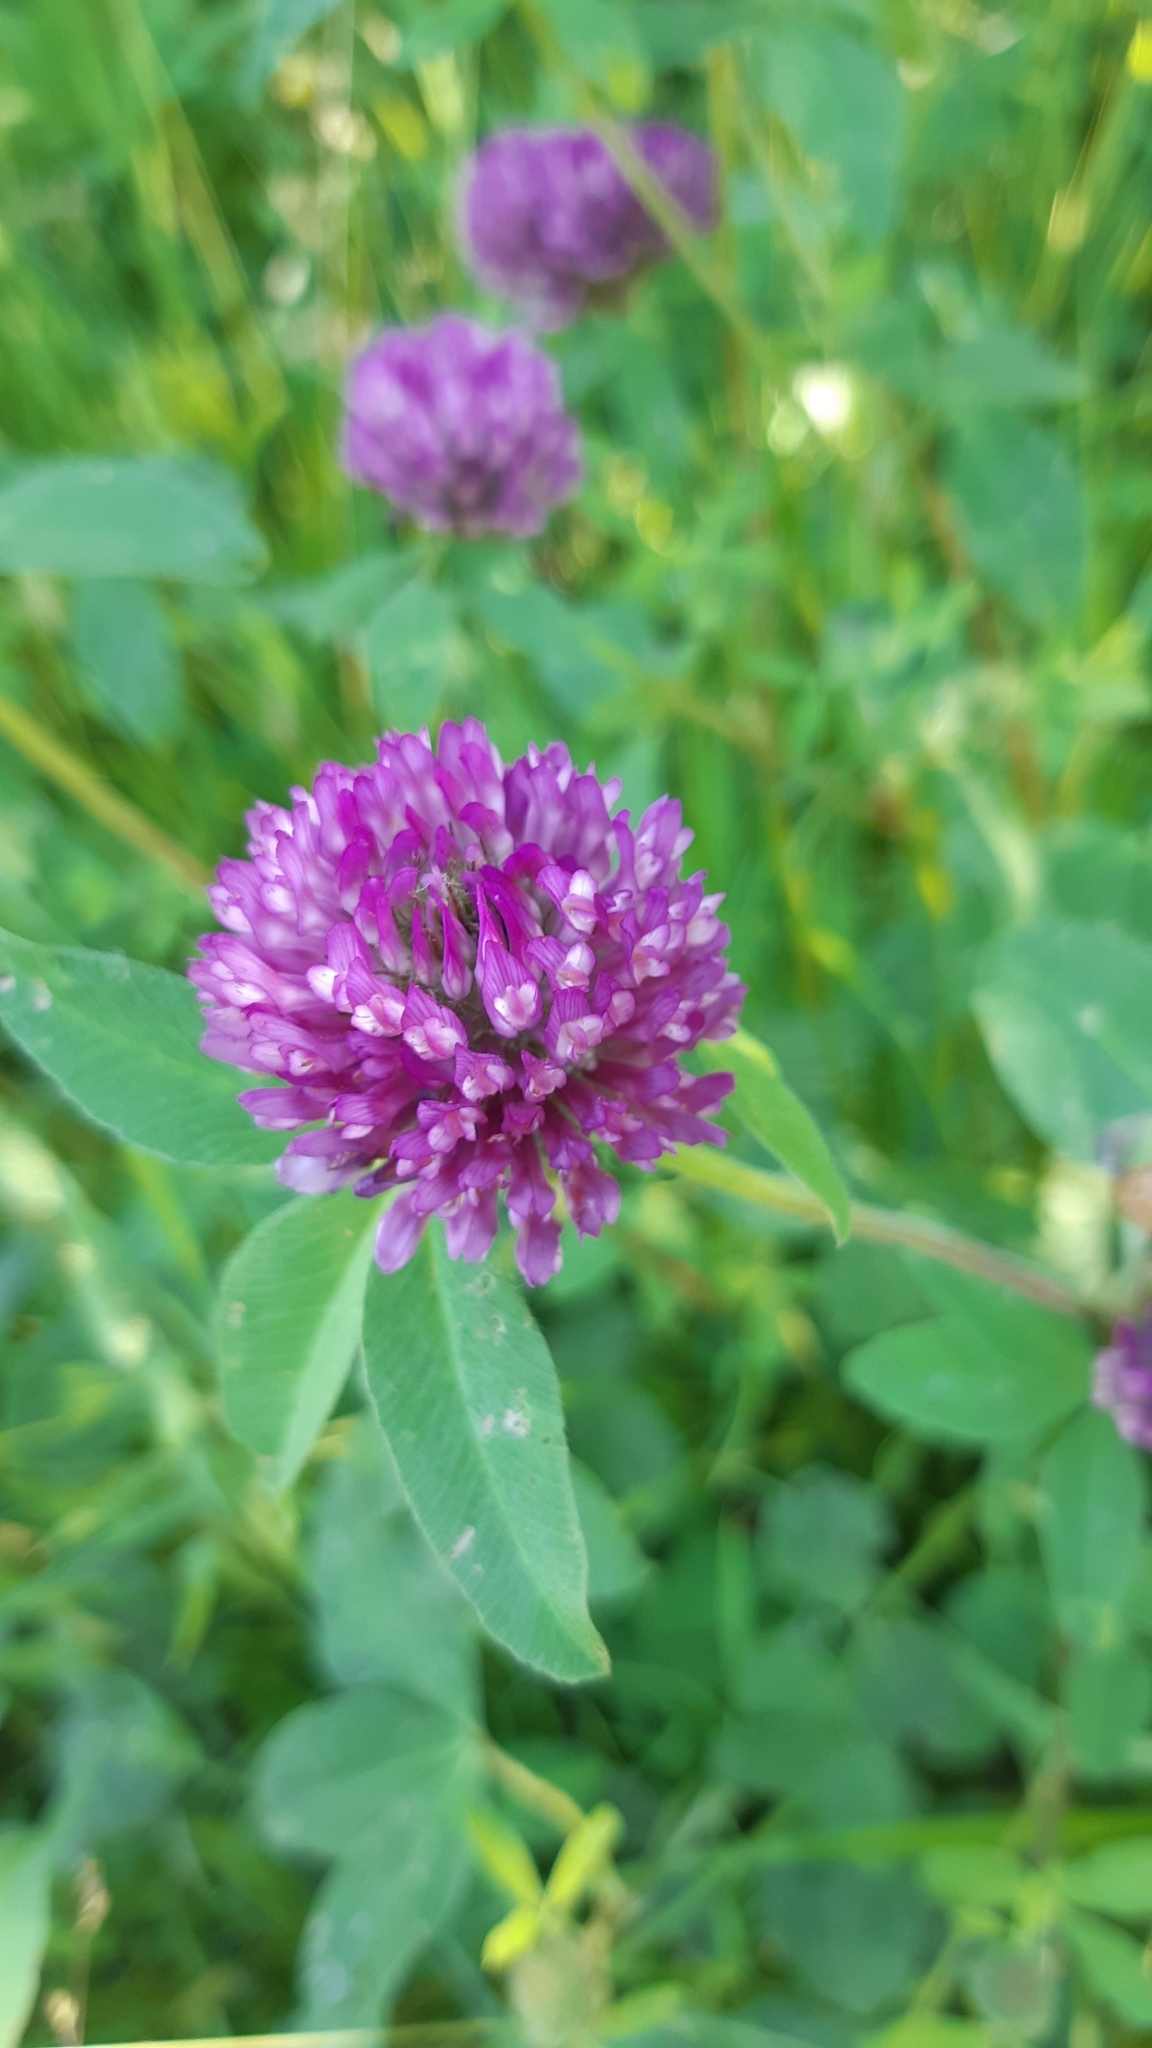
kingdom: Plantae
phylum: Tracheophyta
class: Magnoliopsida
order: Fabales
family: Fabaceae
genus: Trifolium
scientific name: Trifolium medium
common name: Zigzag clover
